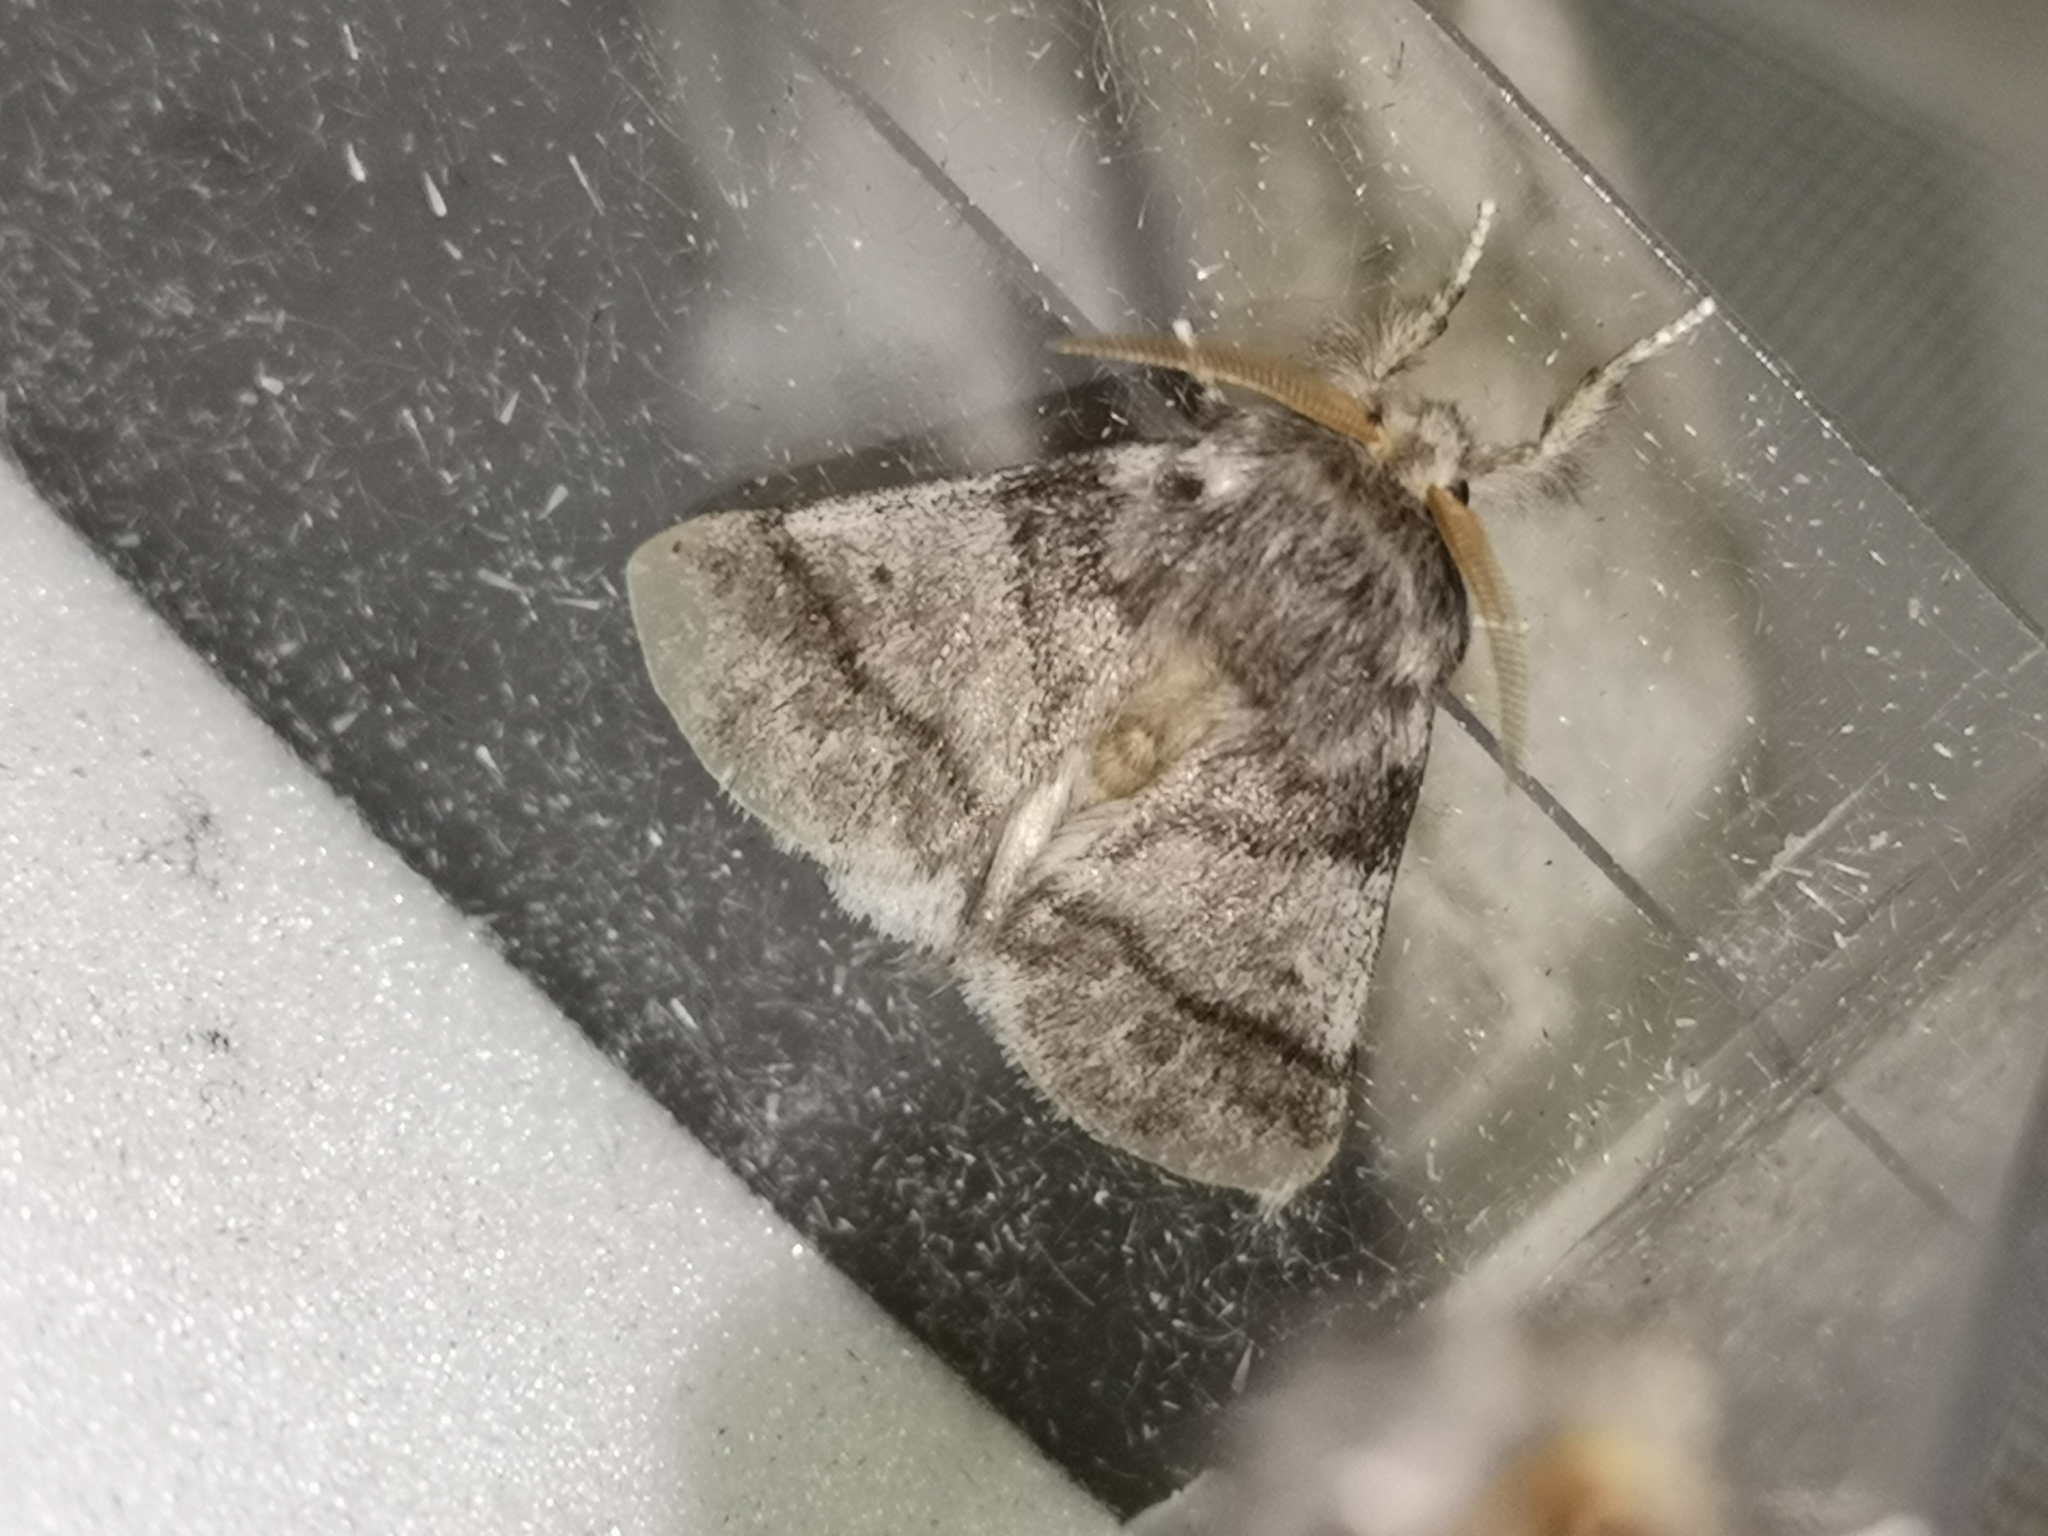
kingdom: Animalia
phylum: Arthropoda
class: Insecta
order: Lepidoptera
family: Notodontidae
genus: Thaumetopoea
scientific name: Thaumetopoea processionea
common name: Oak processionea
